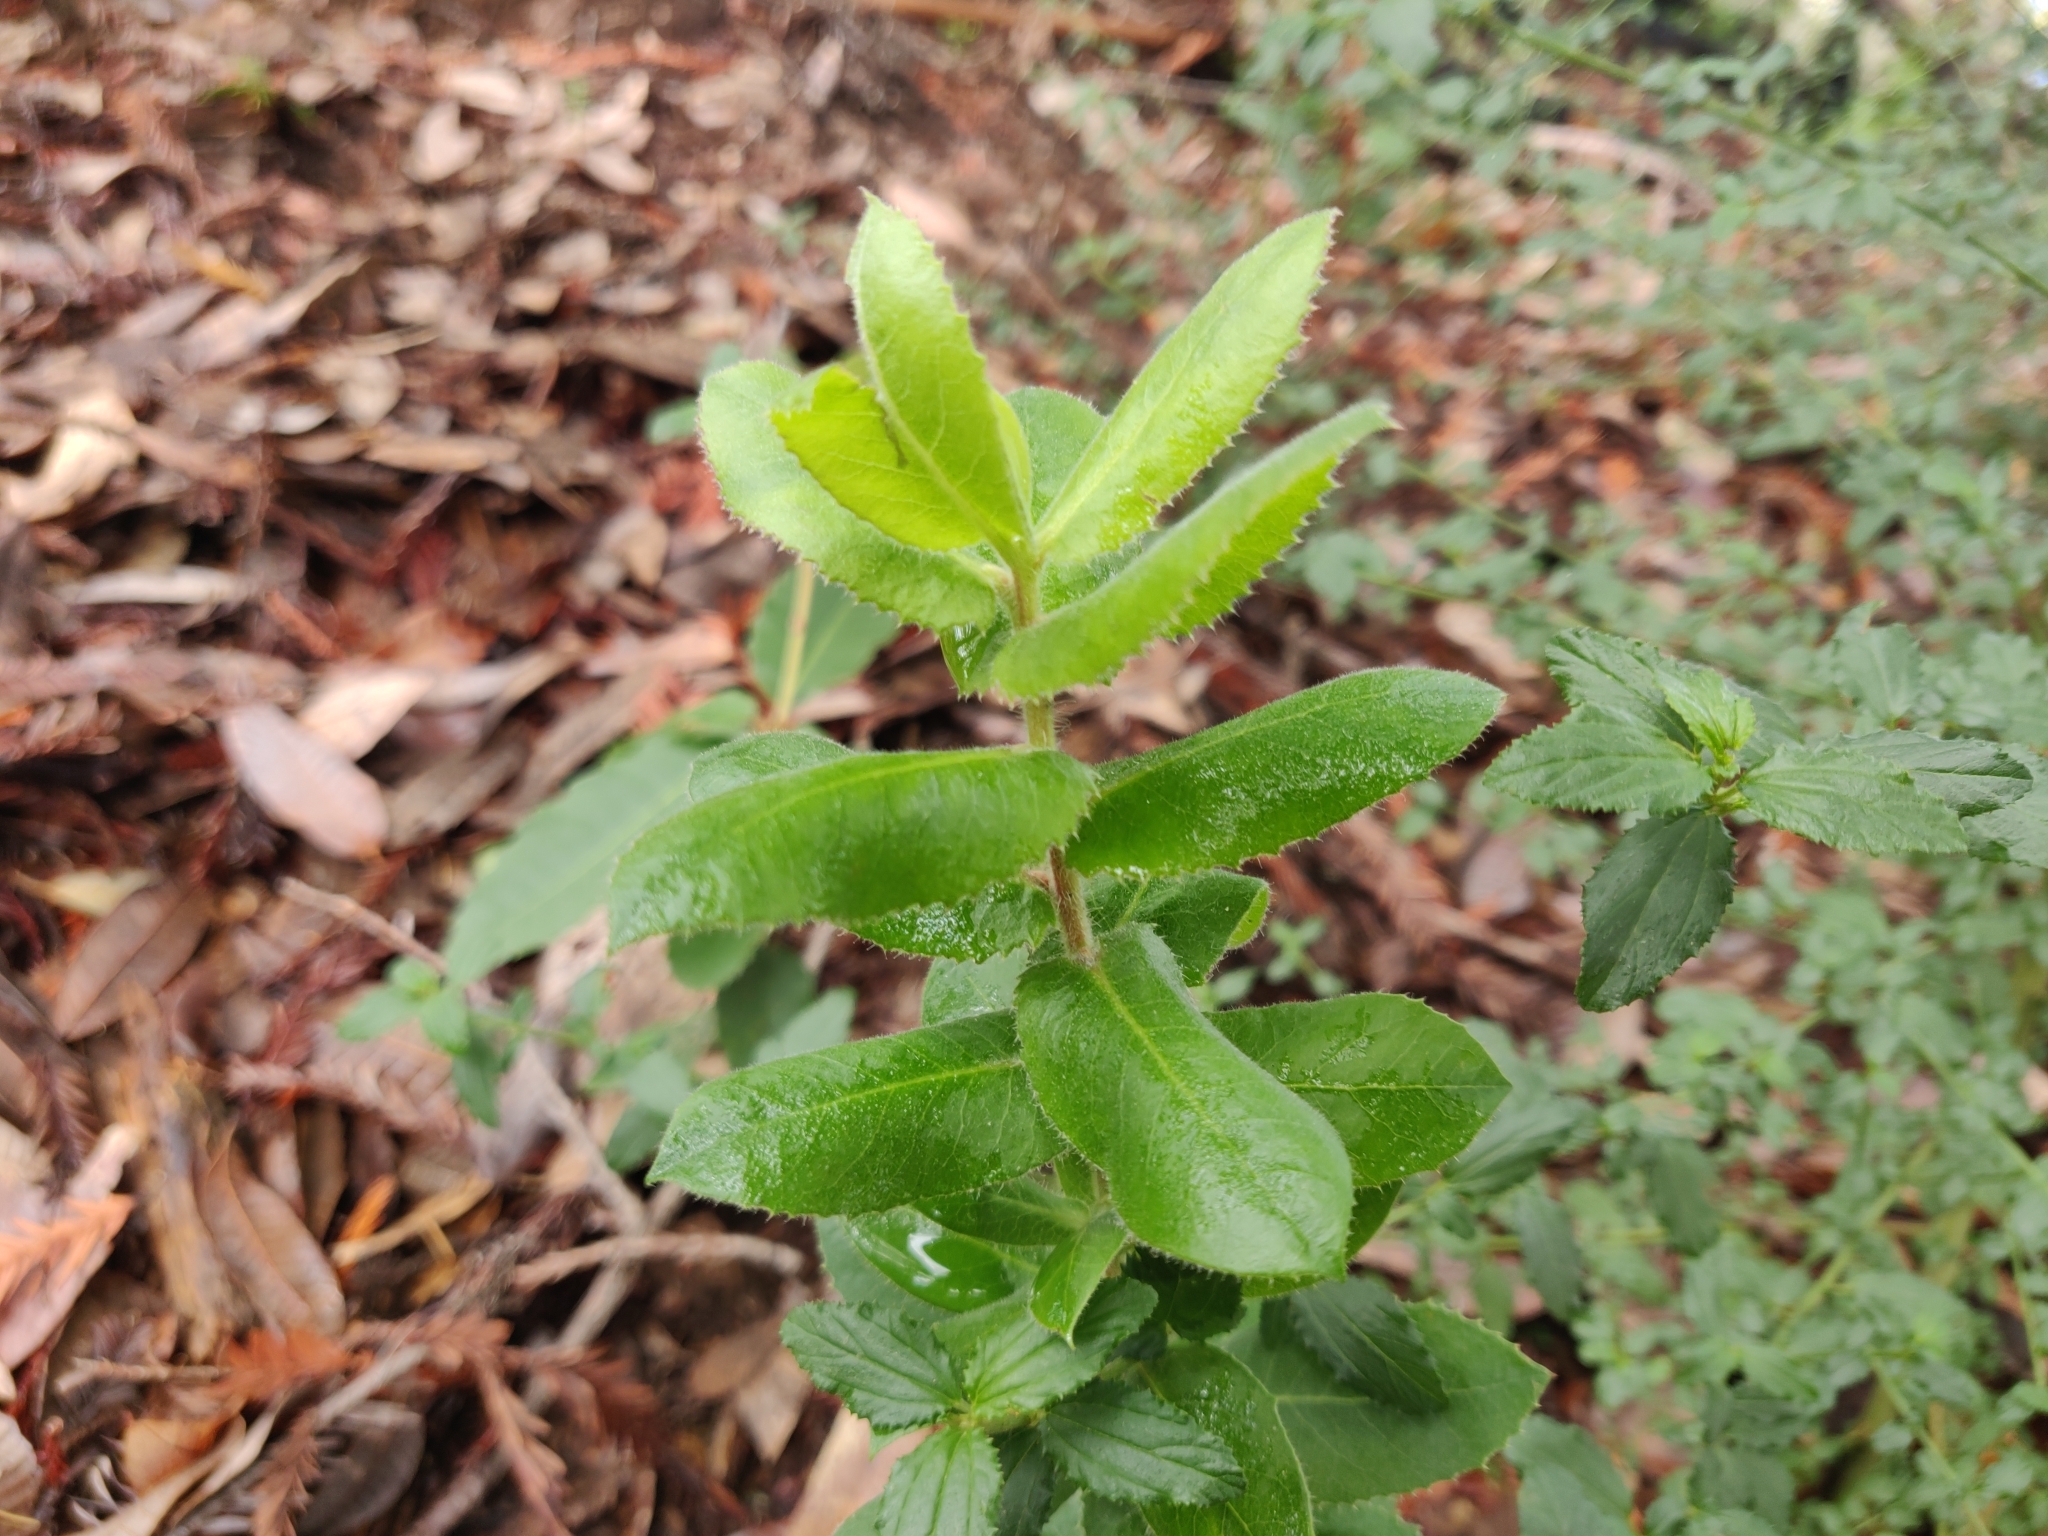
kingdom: Plantae
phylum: Tracheophyta
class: Magnoliopsida
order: Ericales
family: Ericaceae
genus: Arctostaphylos
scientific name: Arctostaphylos andersonii
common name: Santa cruz manzanita
